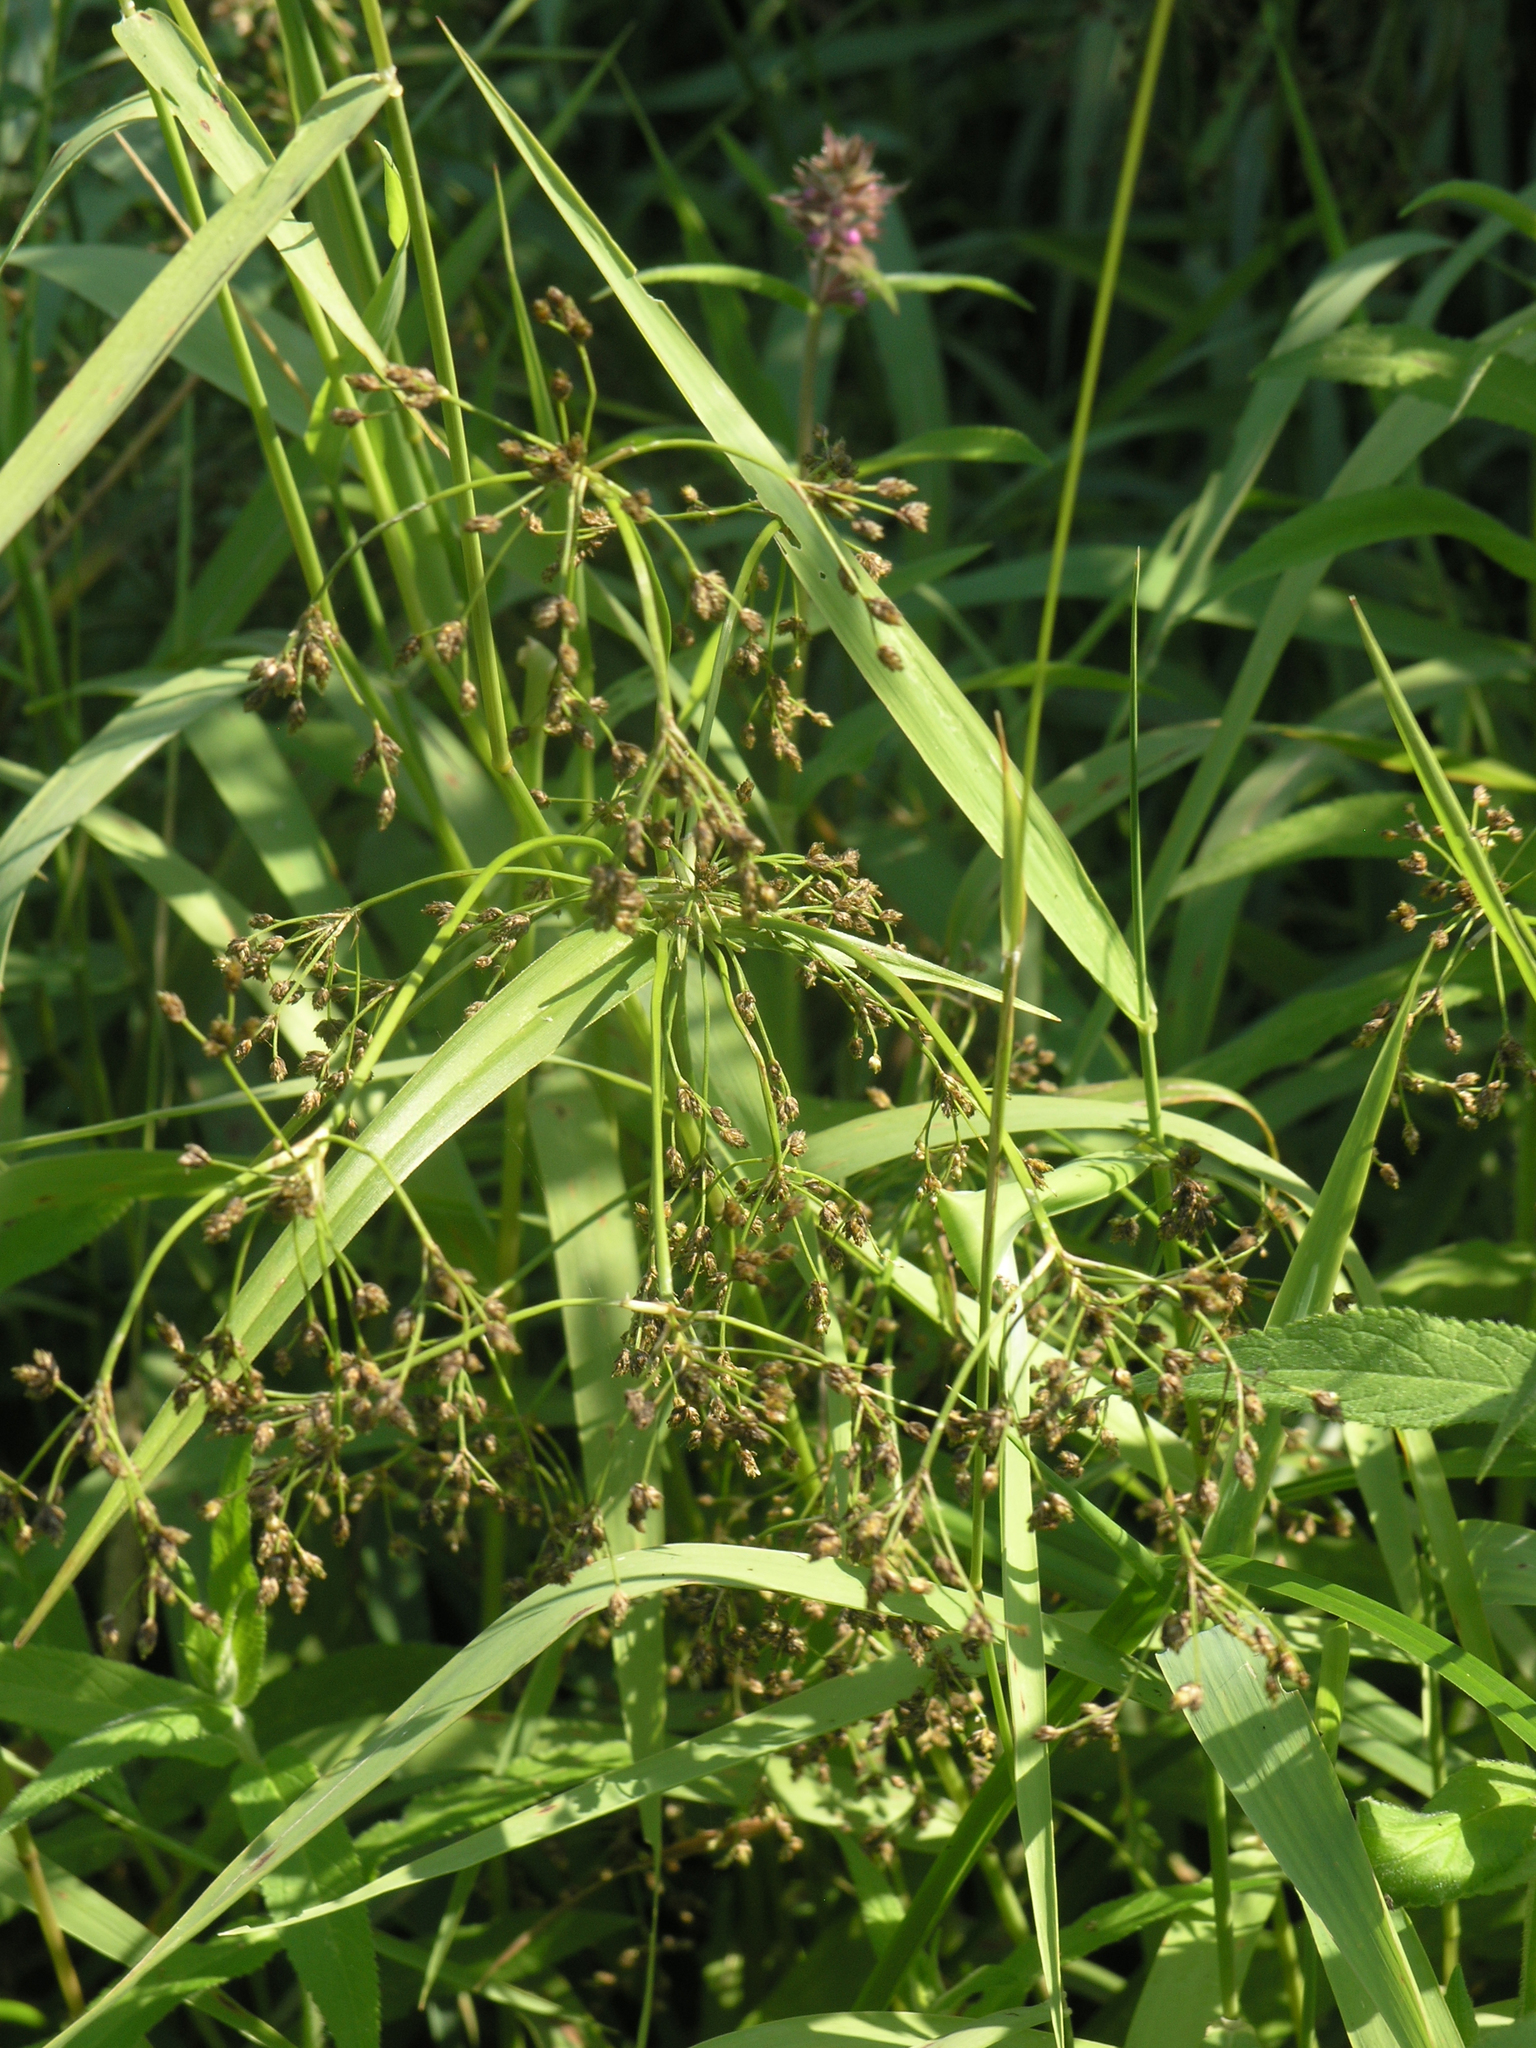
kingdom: Plantae
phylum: Tracheophyta
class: Liliopsida
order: Poales
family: Cyperaceae
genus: Scirpus
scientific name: Scirpus sylvaticus
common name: Wood club-rush
